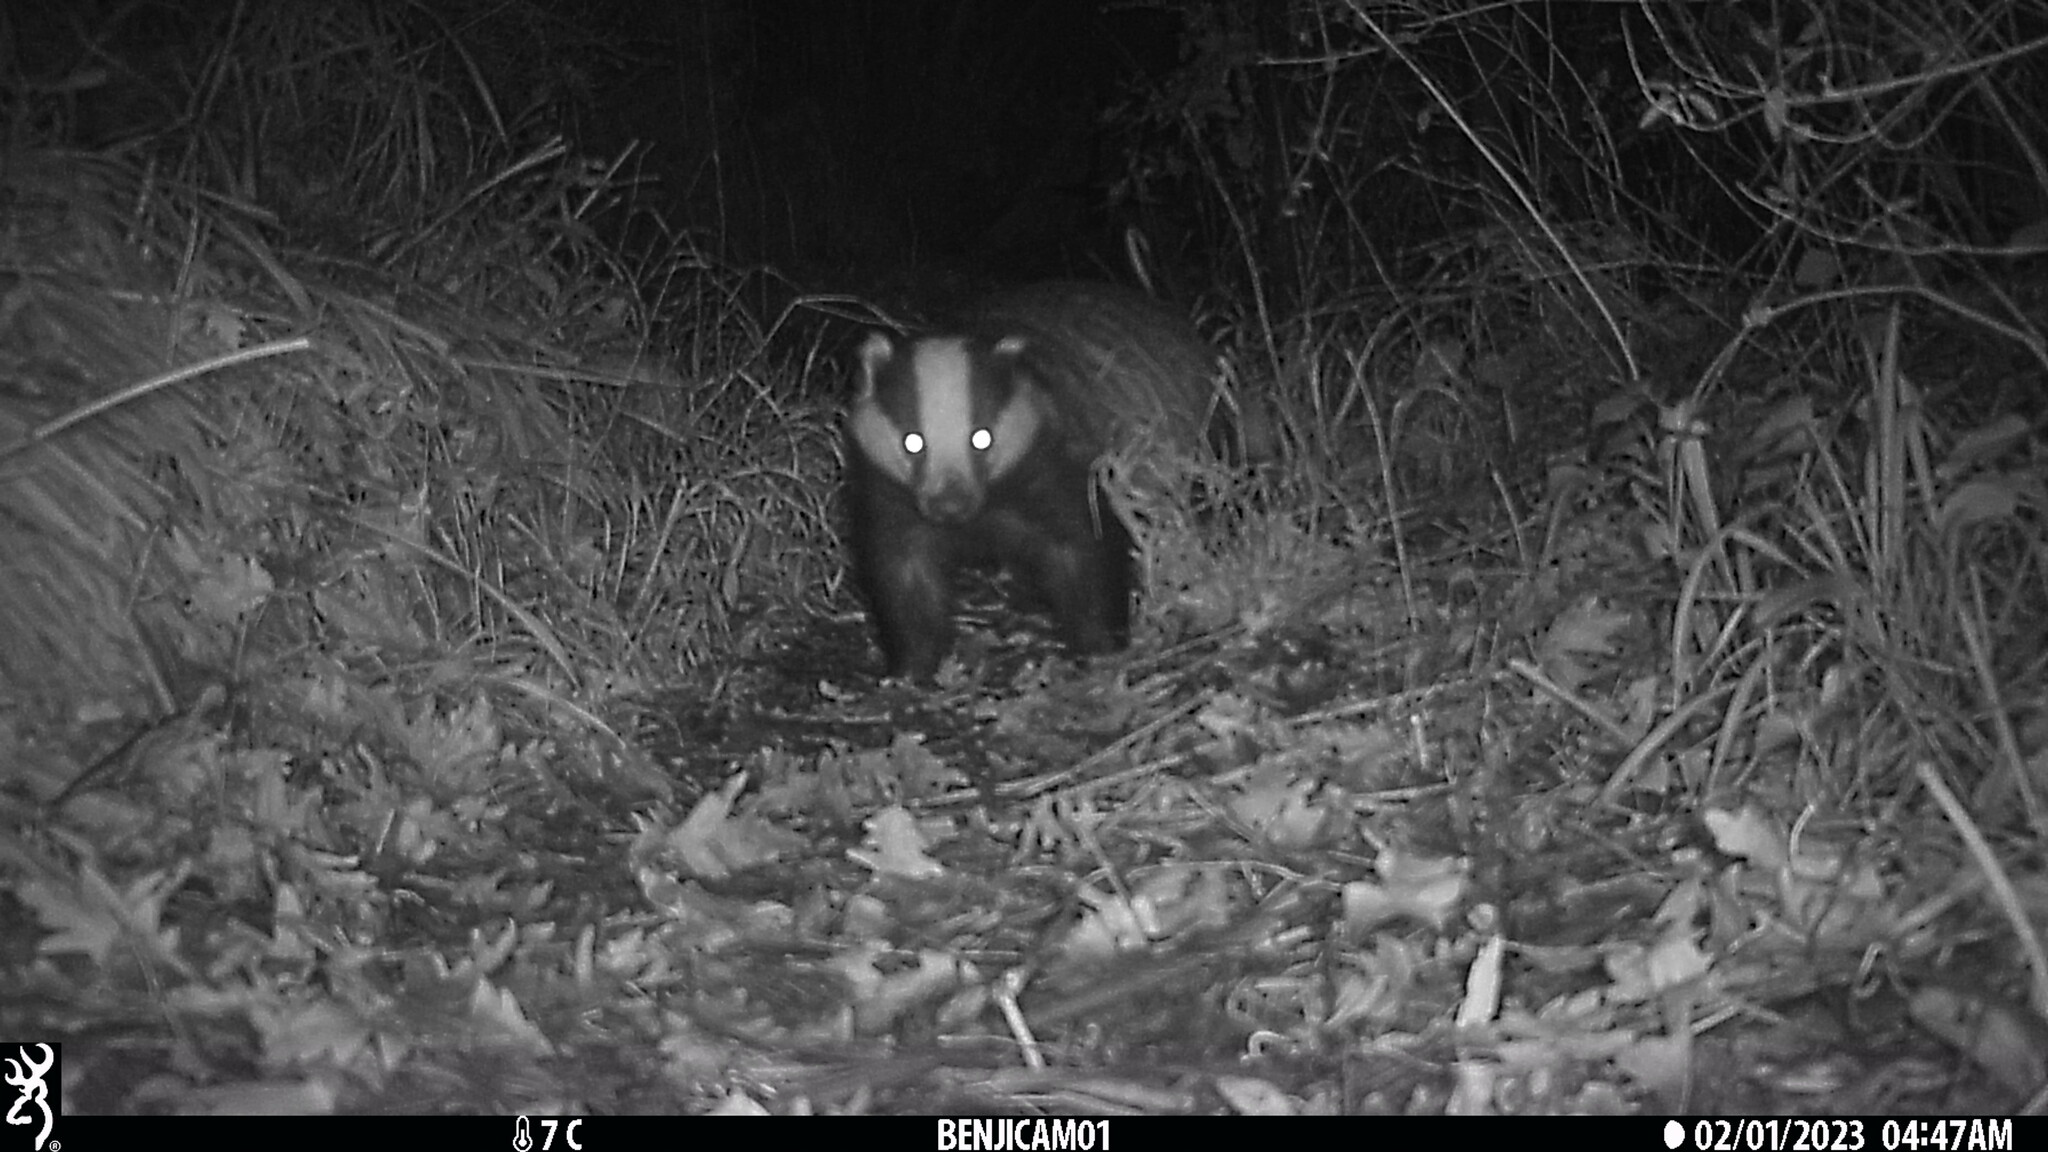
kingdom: Animalia
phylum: Chordata
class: Mammalia
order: Carnivora
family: Mustelidae
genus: Meles
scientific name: Meles meles
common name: Eurasian badger
